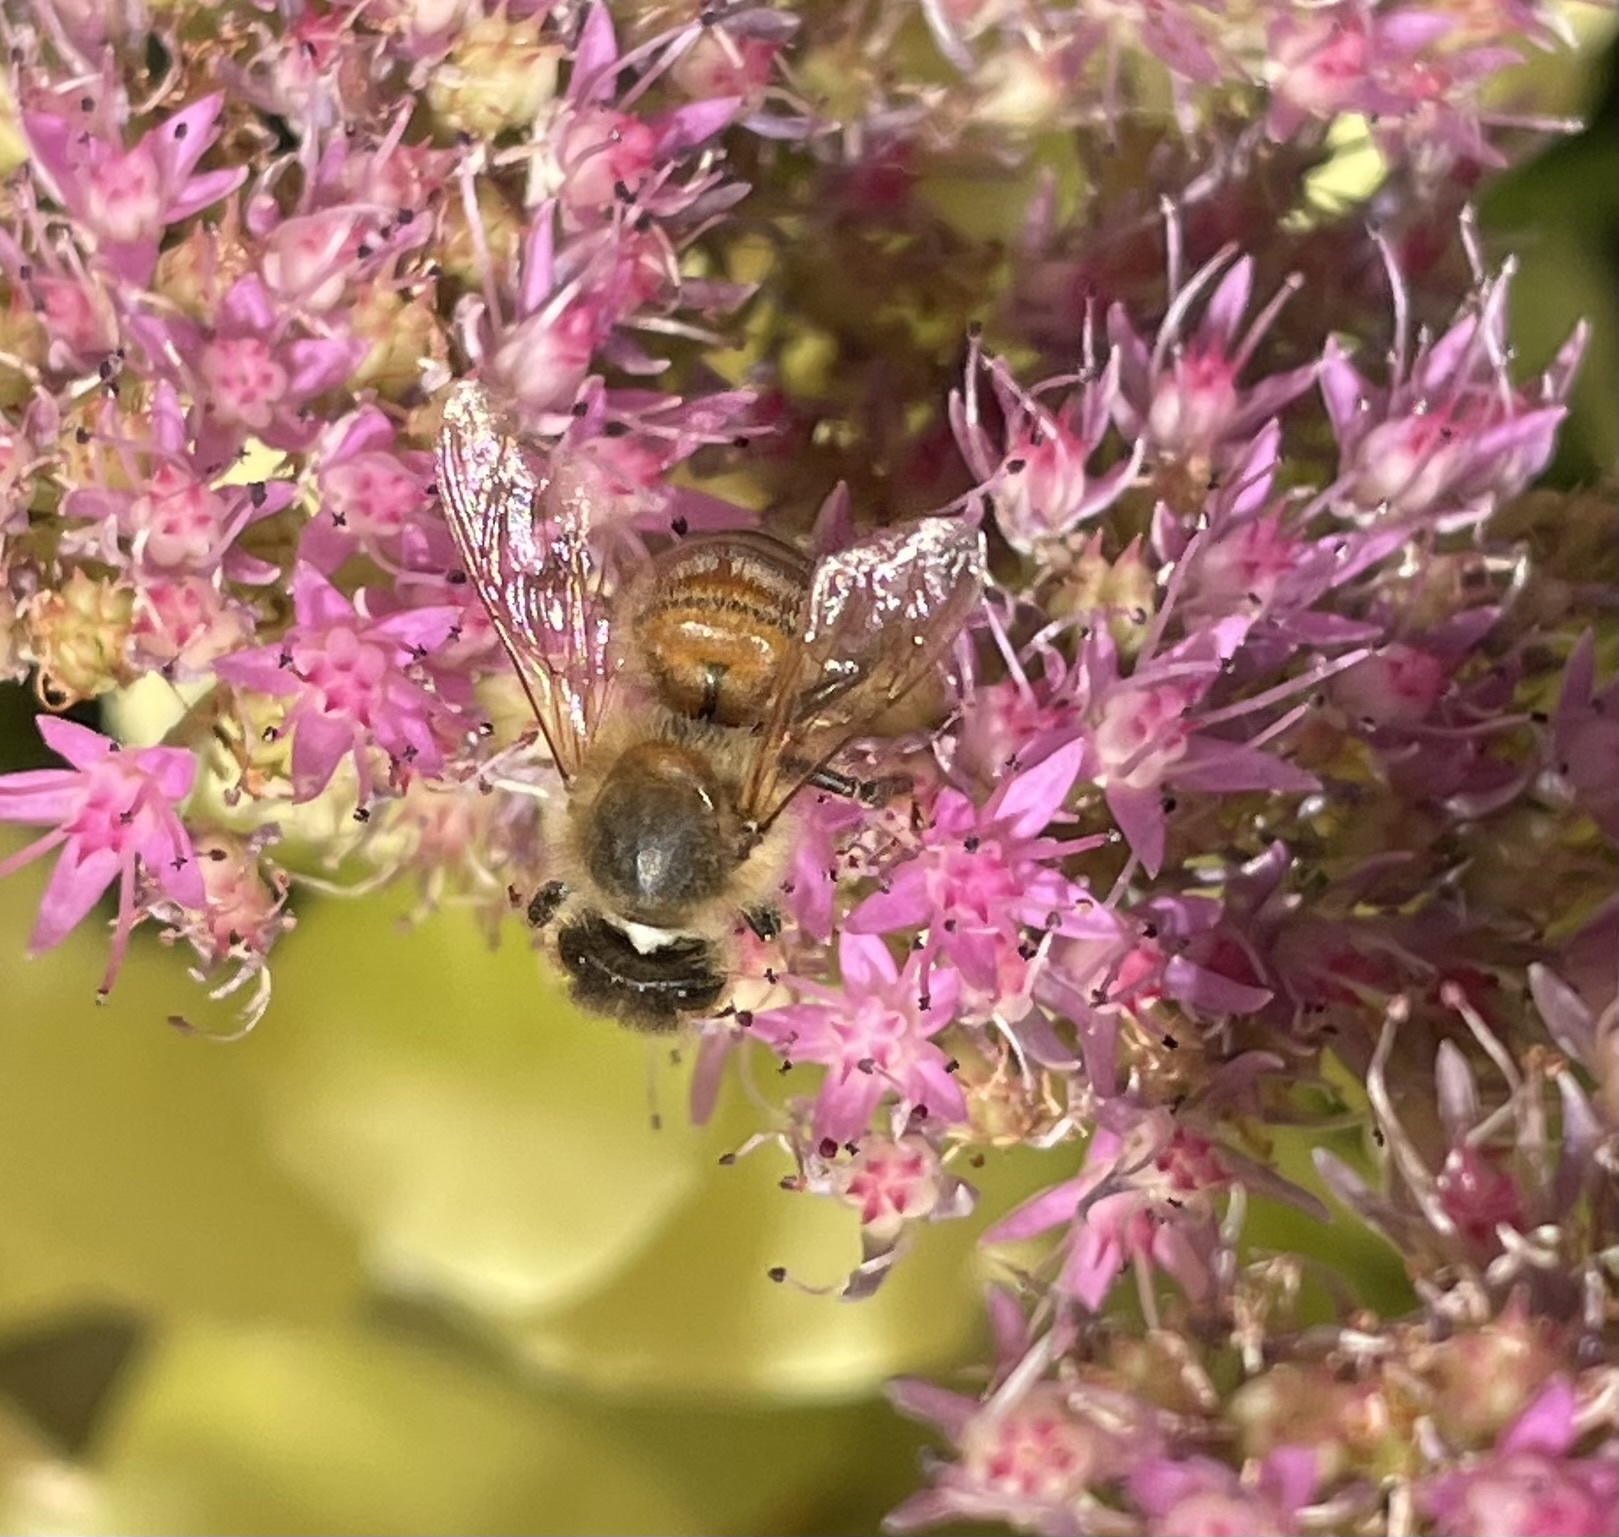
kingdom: Animalia
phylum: Arthropoda
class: Insecta
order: Hymenoptera
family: Apidae
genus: Apis
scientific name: Apis mellifera
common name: Honey bee
